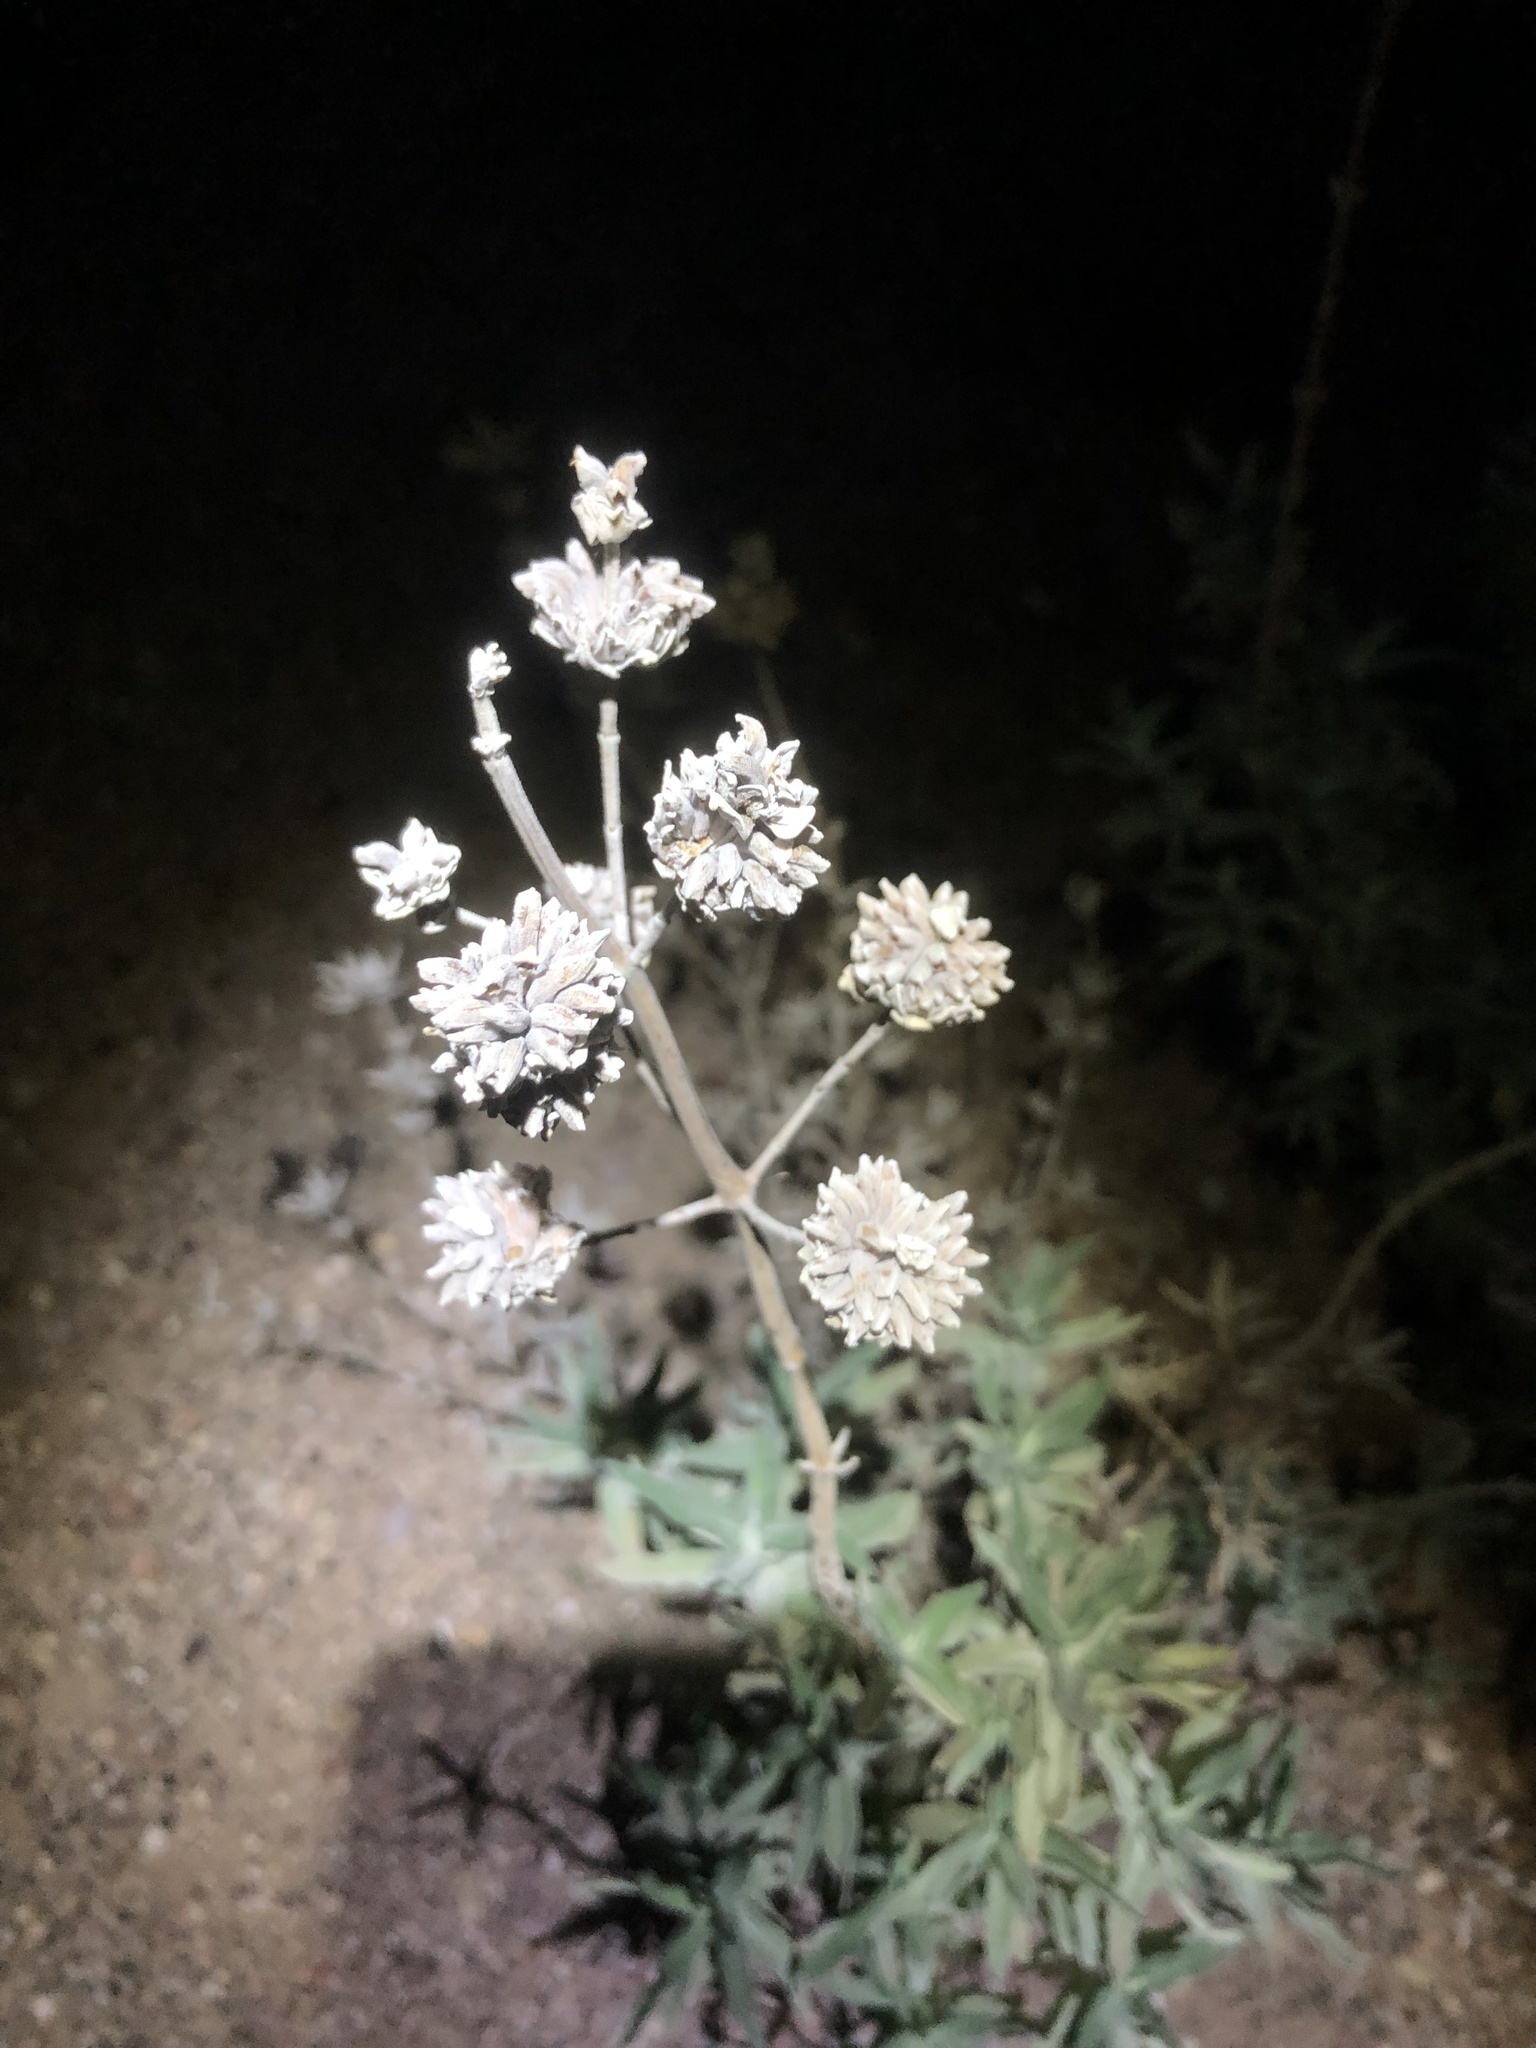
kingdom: Plantae
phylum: Tracheophyta
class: Magnoliopsida
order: Lamiales
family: Lamiaceae
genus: Salvia
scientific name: Salvia leucophylla
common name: Purple sage
